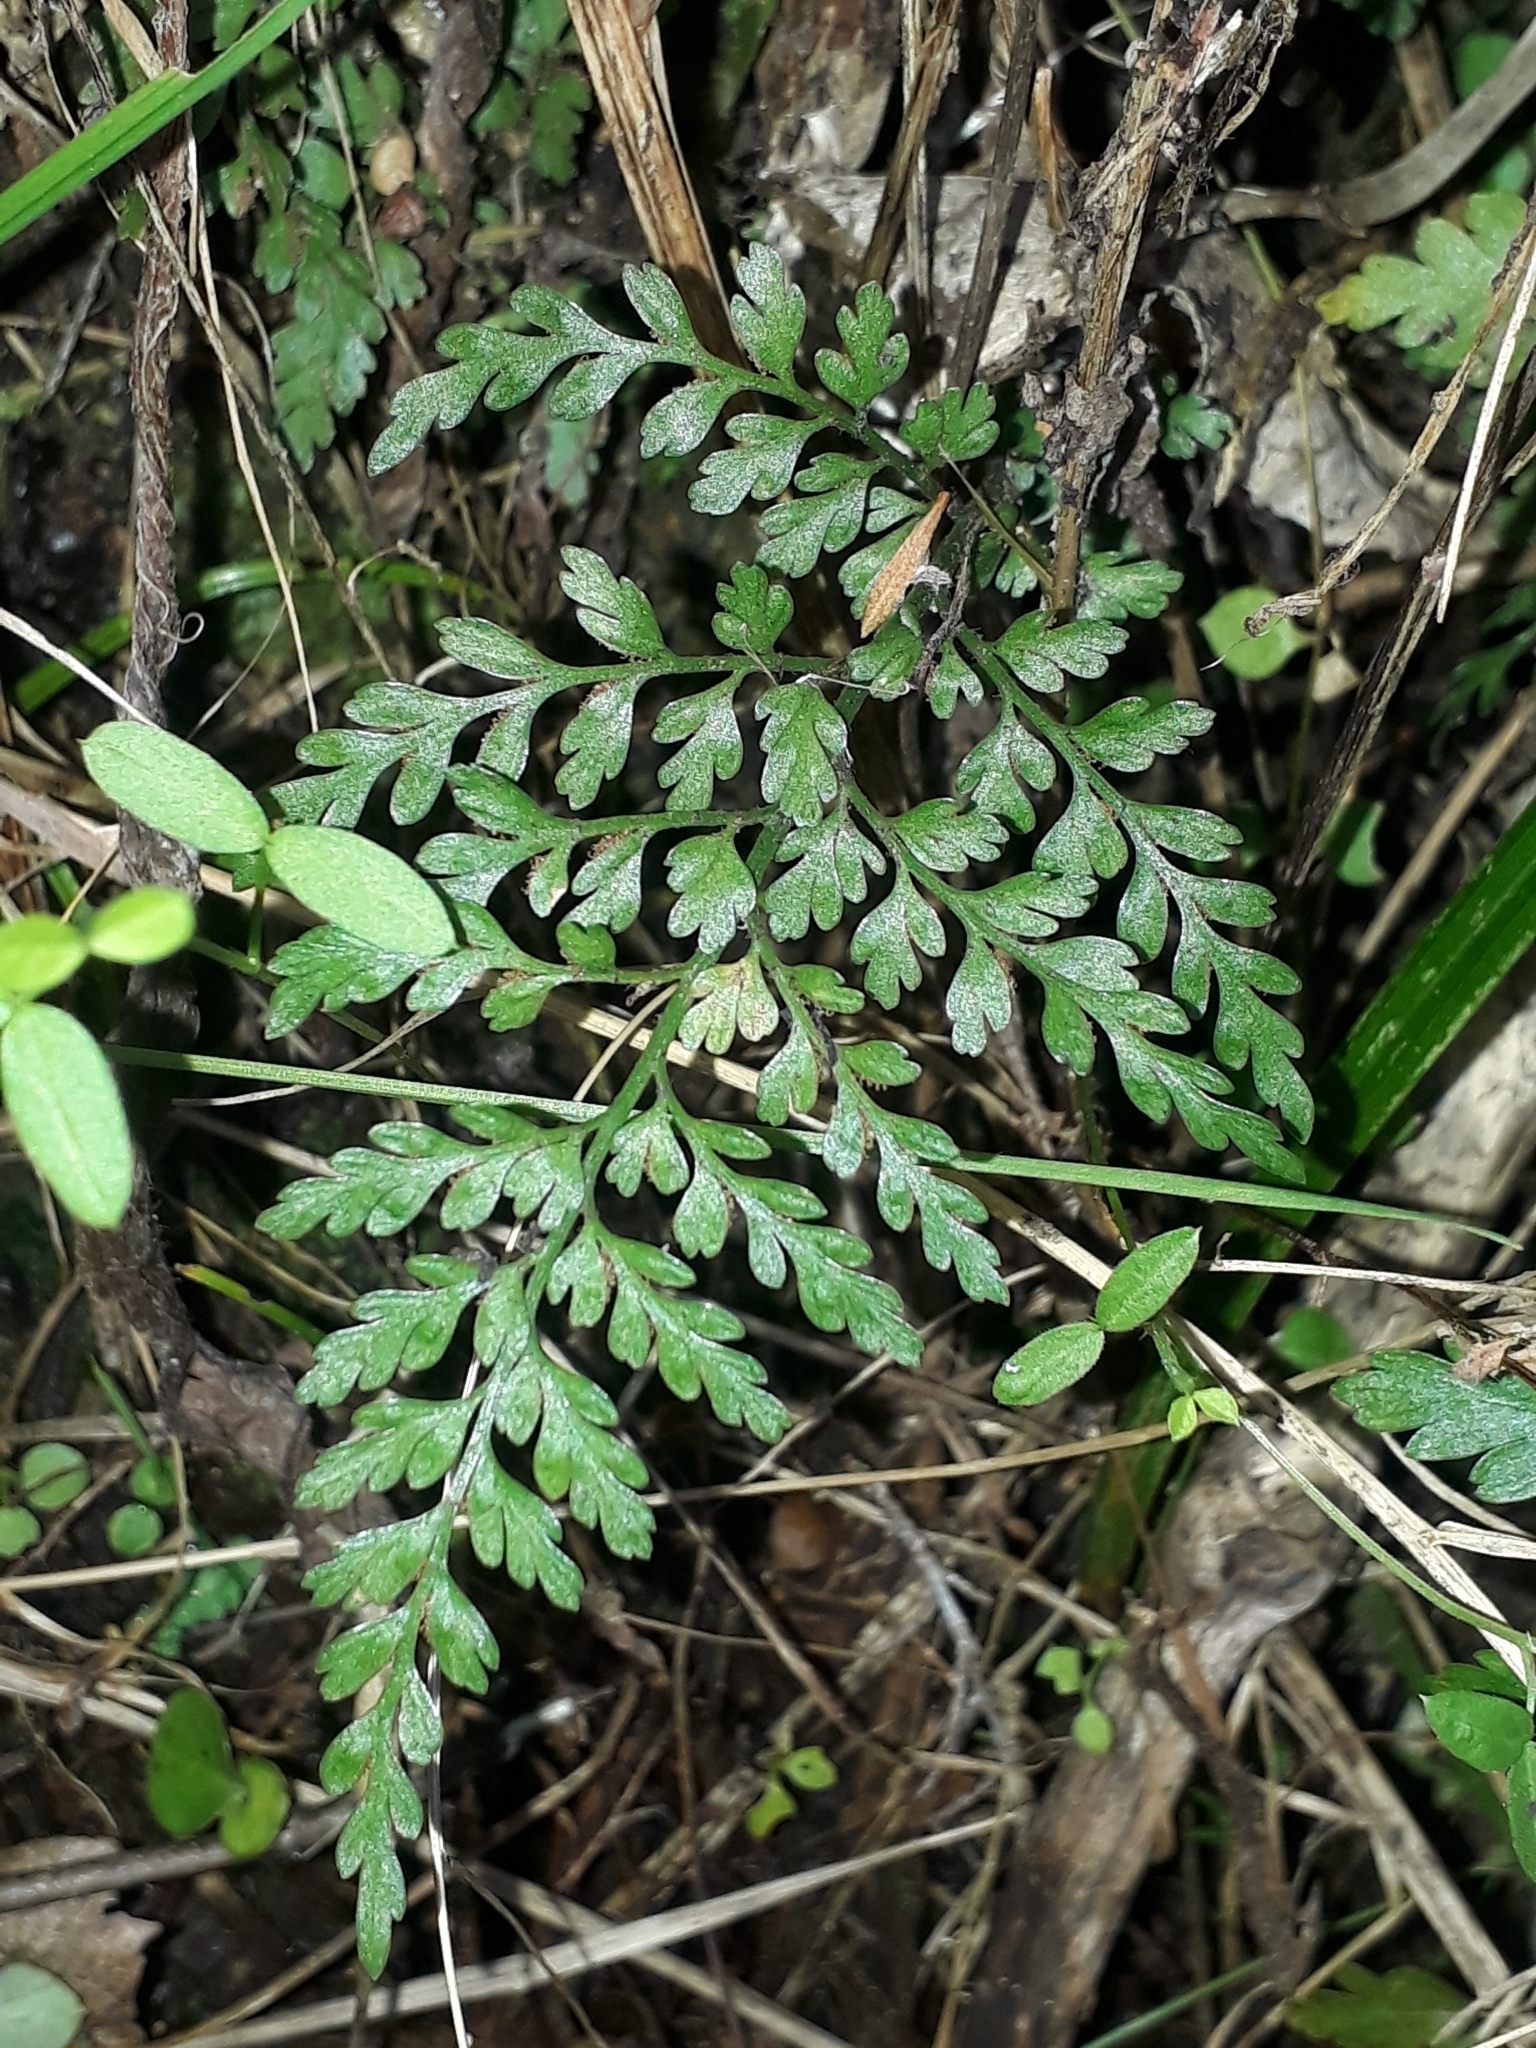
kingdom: Plantae
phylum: Tracheophyta
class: Polypodiopsida
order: Polypodiales
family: Aspleniaceae
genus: Asplenium
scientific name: Asplenium hookerianum
